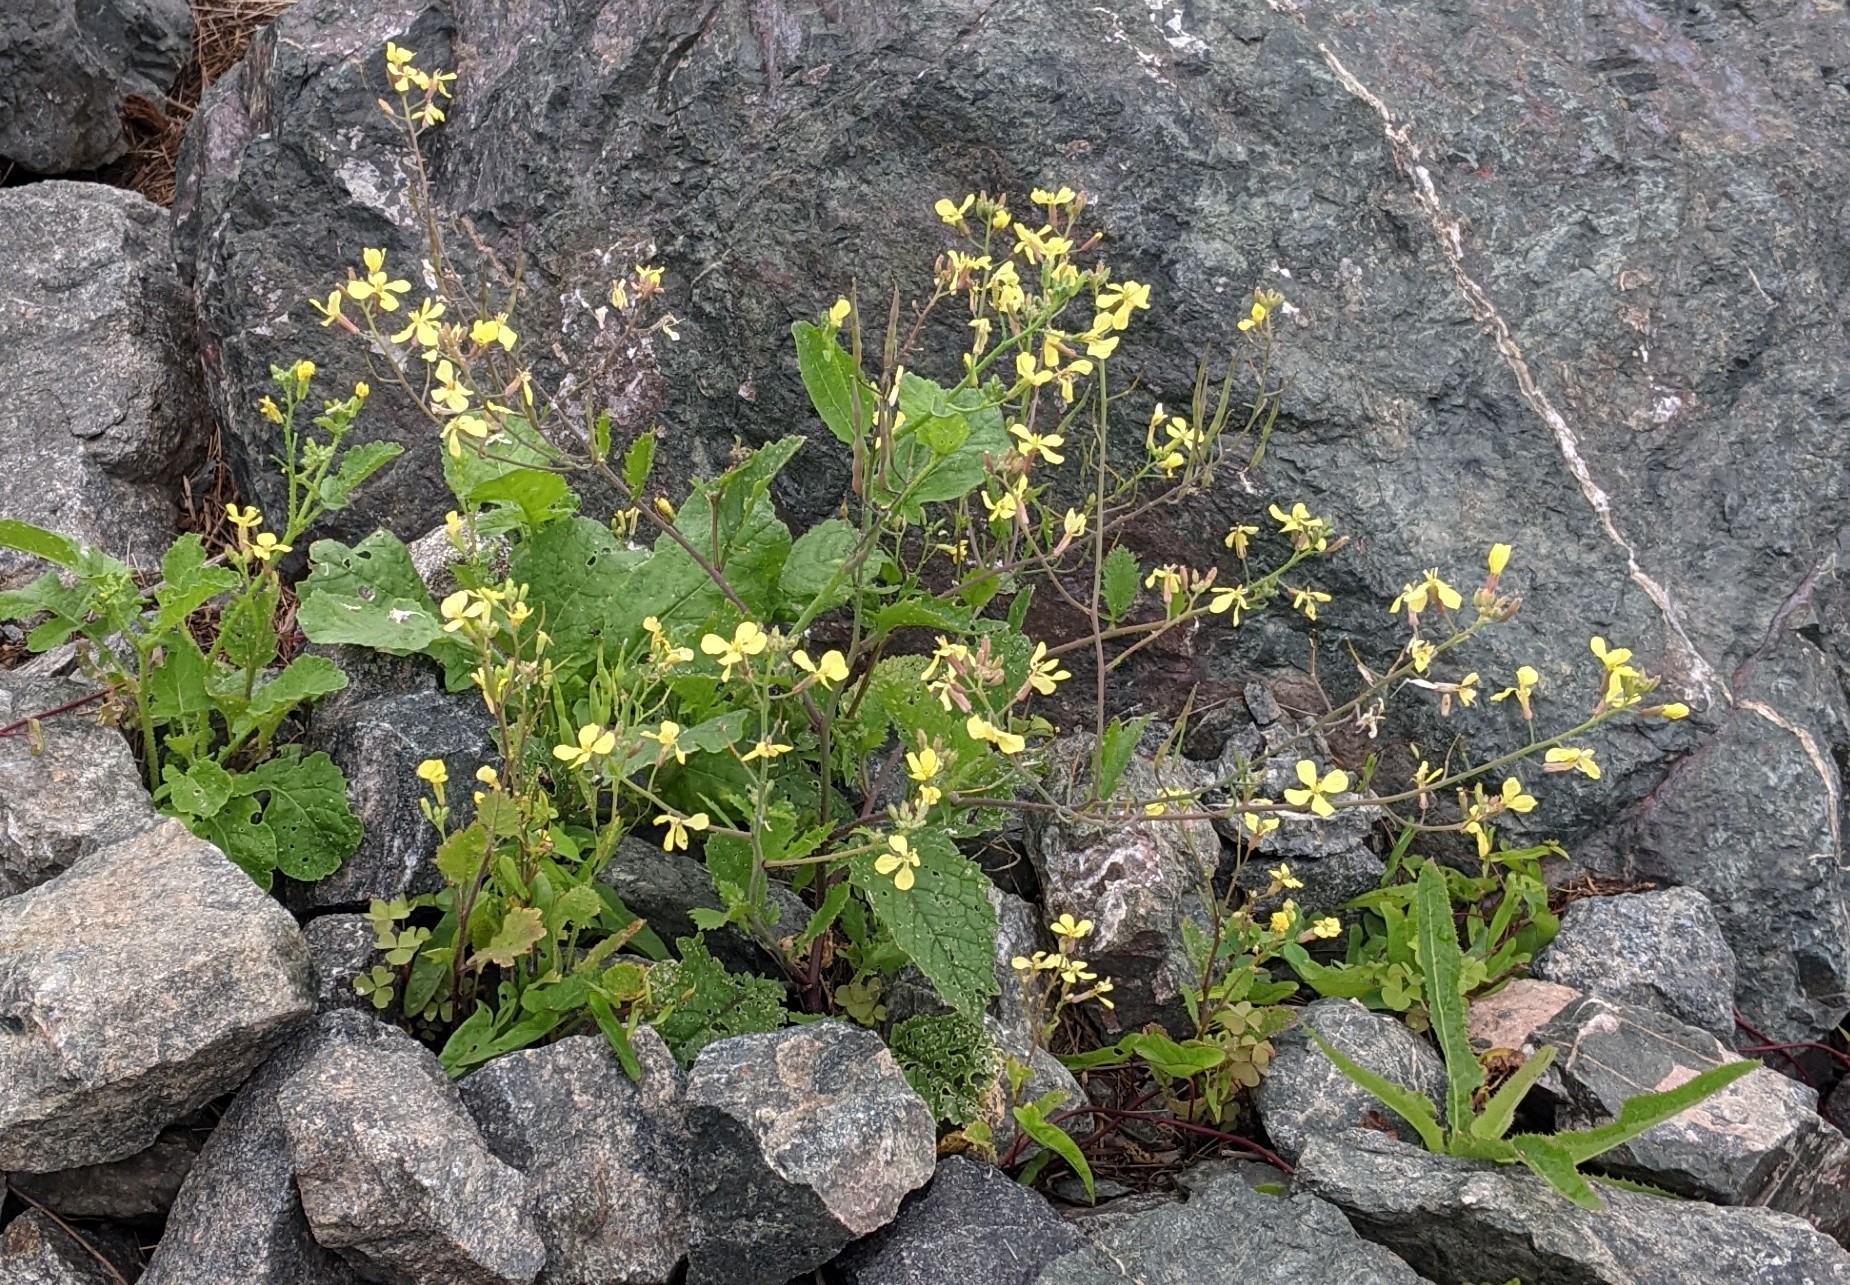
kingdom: Plantae
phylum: Tracheophyta
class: Magnoliopsida
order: Brassicales
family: Brassicaceae
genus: Raphanus
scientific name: Raphanus raphanistrum
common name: Wild radish
